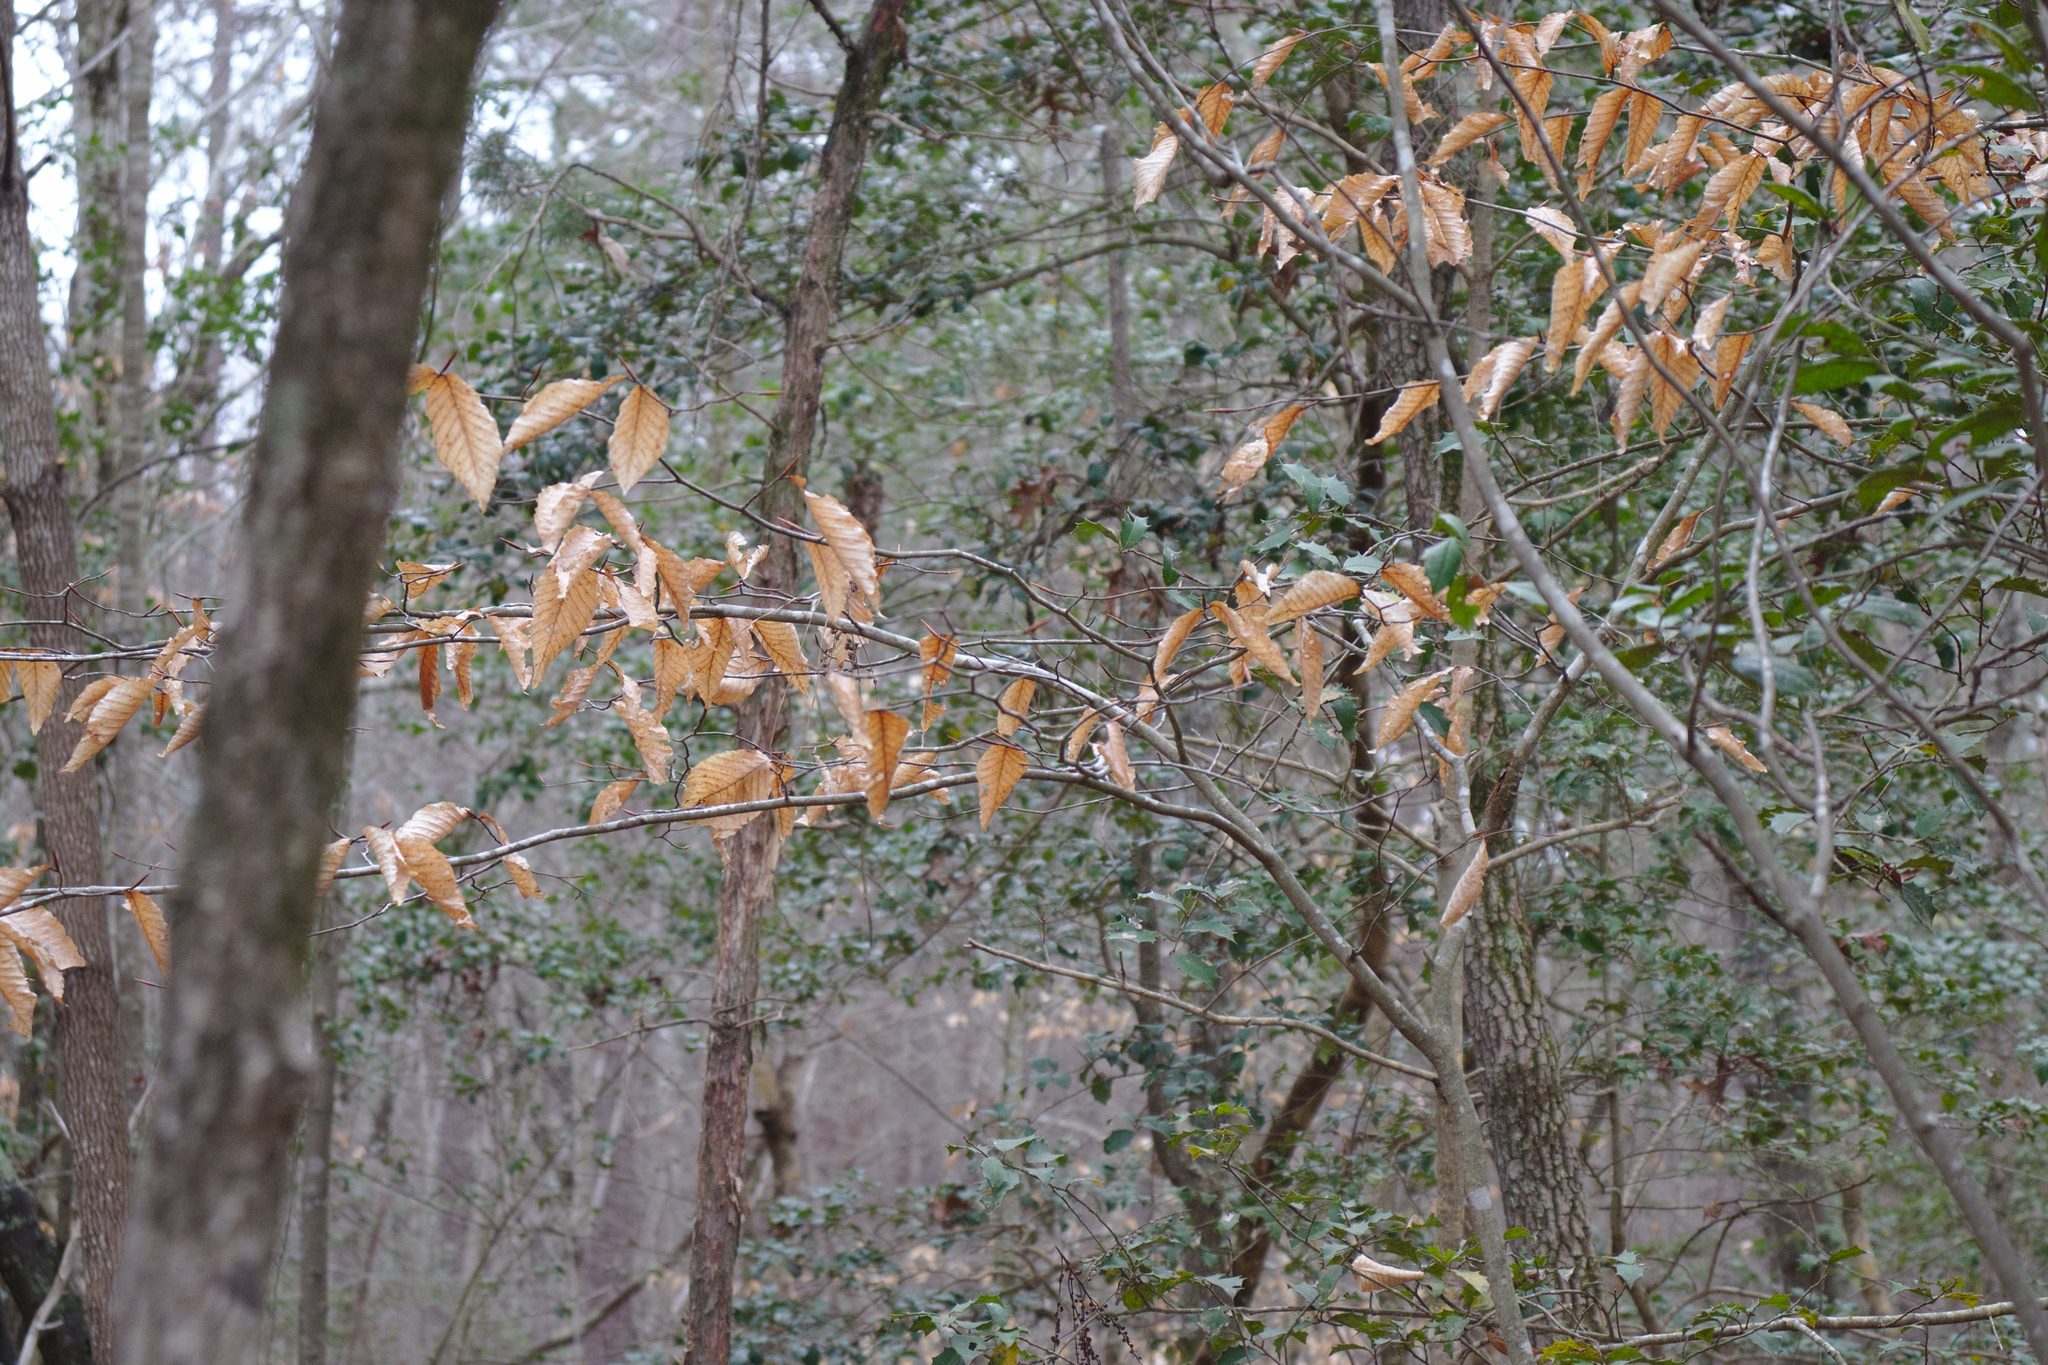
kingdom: Plantae
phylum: Tracheophyta
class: Magnoliopsida
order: Fagales
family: Fagaceae
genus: Fagus
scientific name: Fagus grandifolia
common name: American beech
